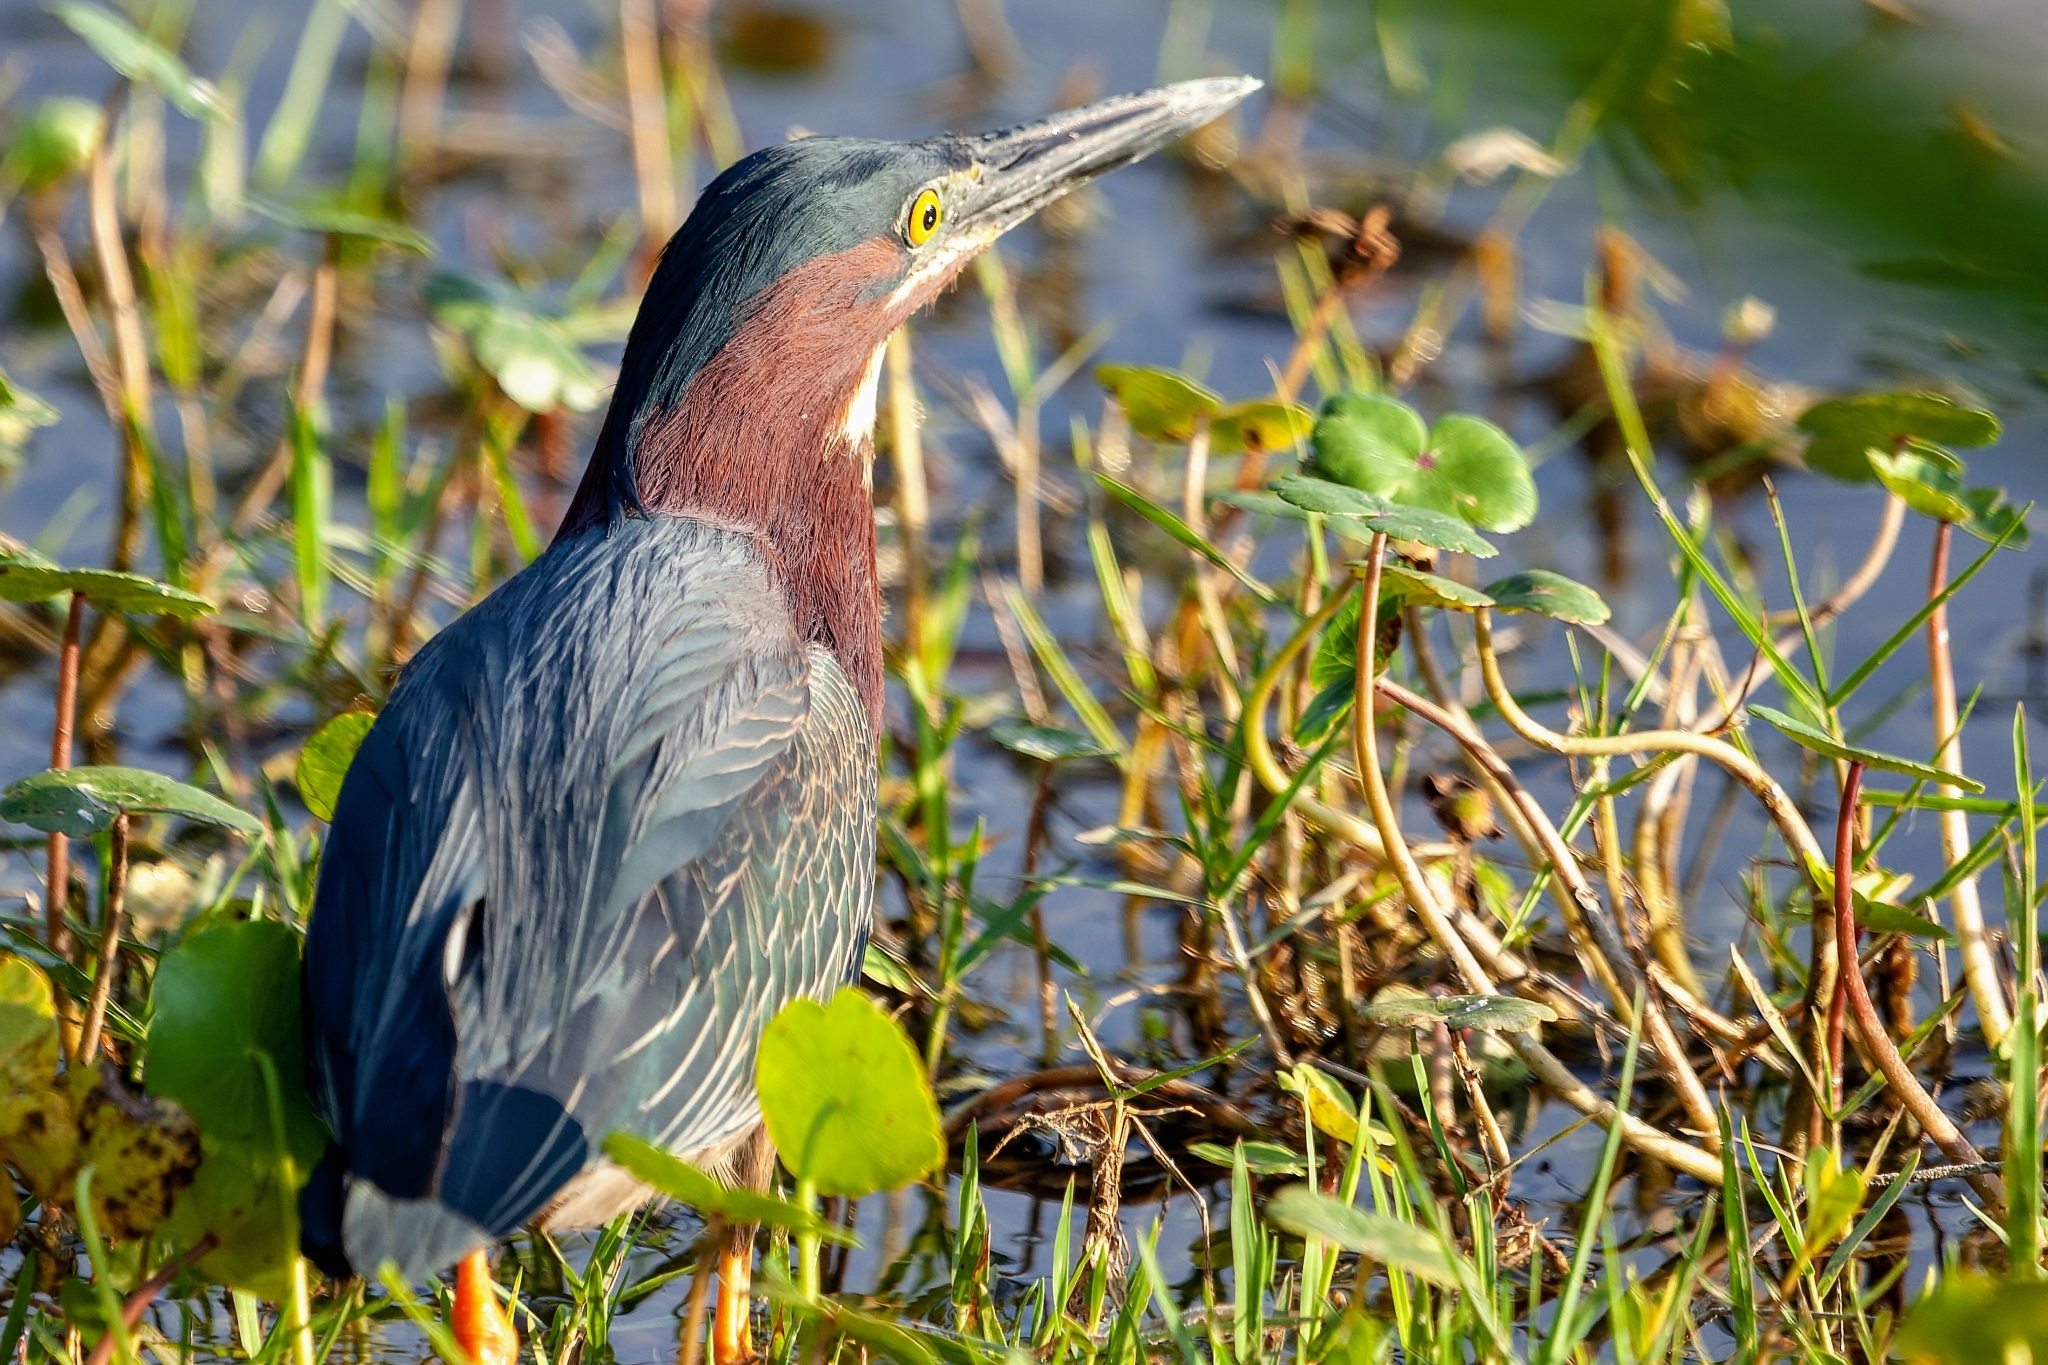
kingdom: Animalia
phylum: Chordata
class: Aves
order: Pelecaniformes
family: Ardeidae
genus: Butorides
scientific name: Butorides virescens
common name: Green heron
